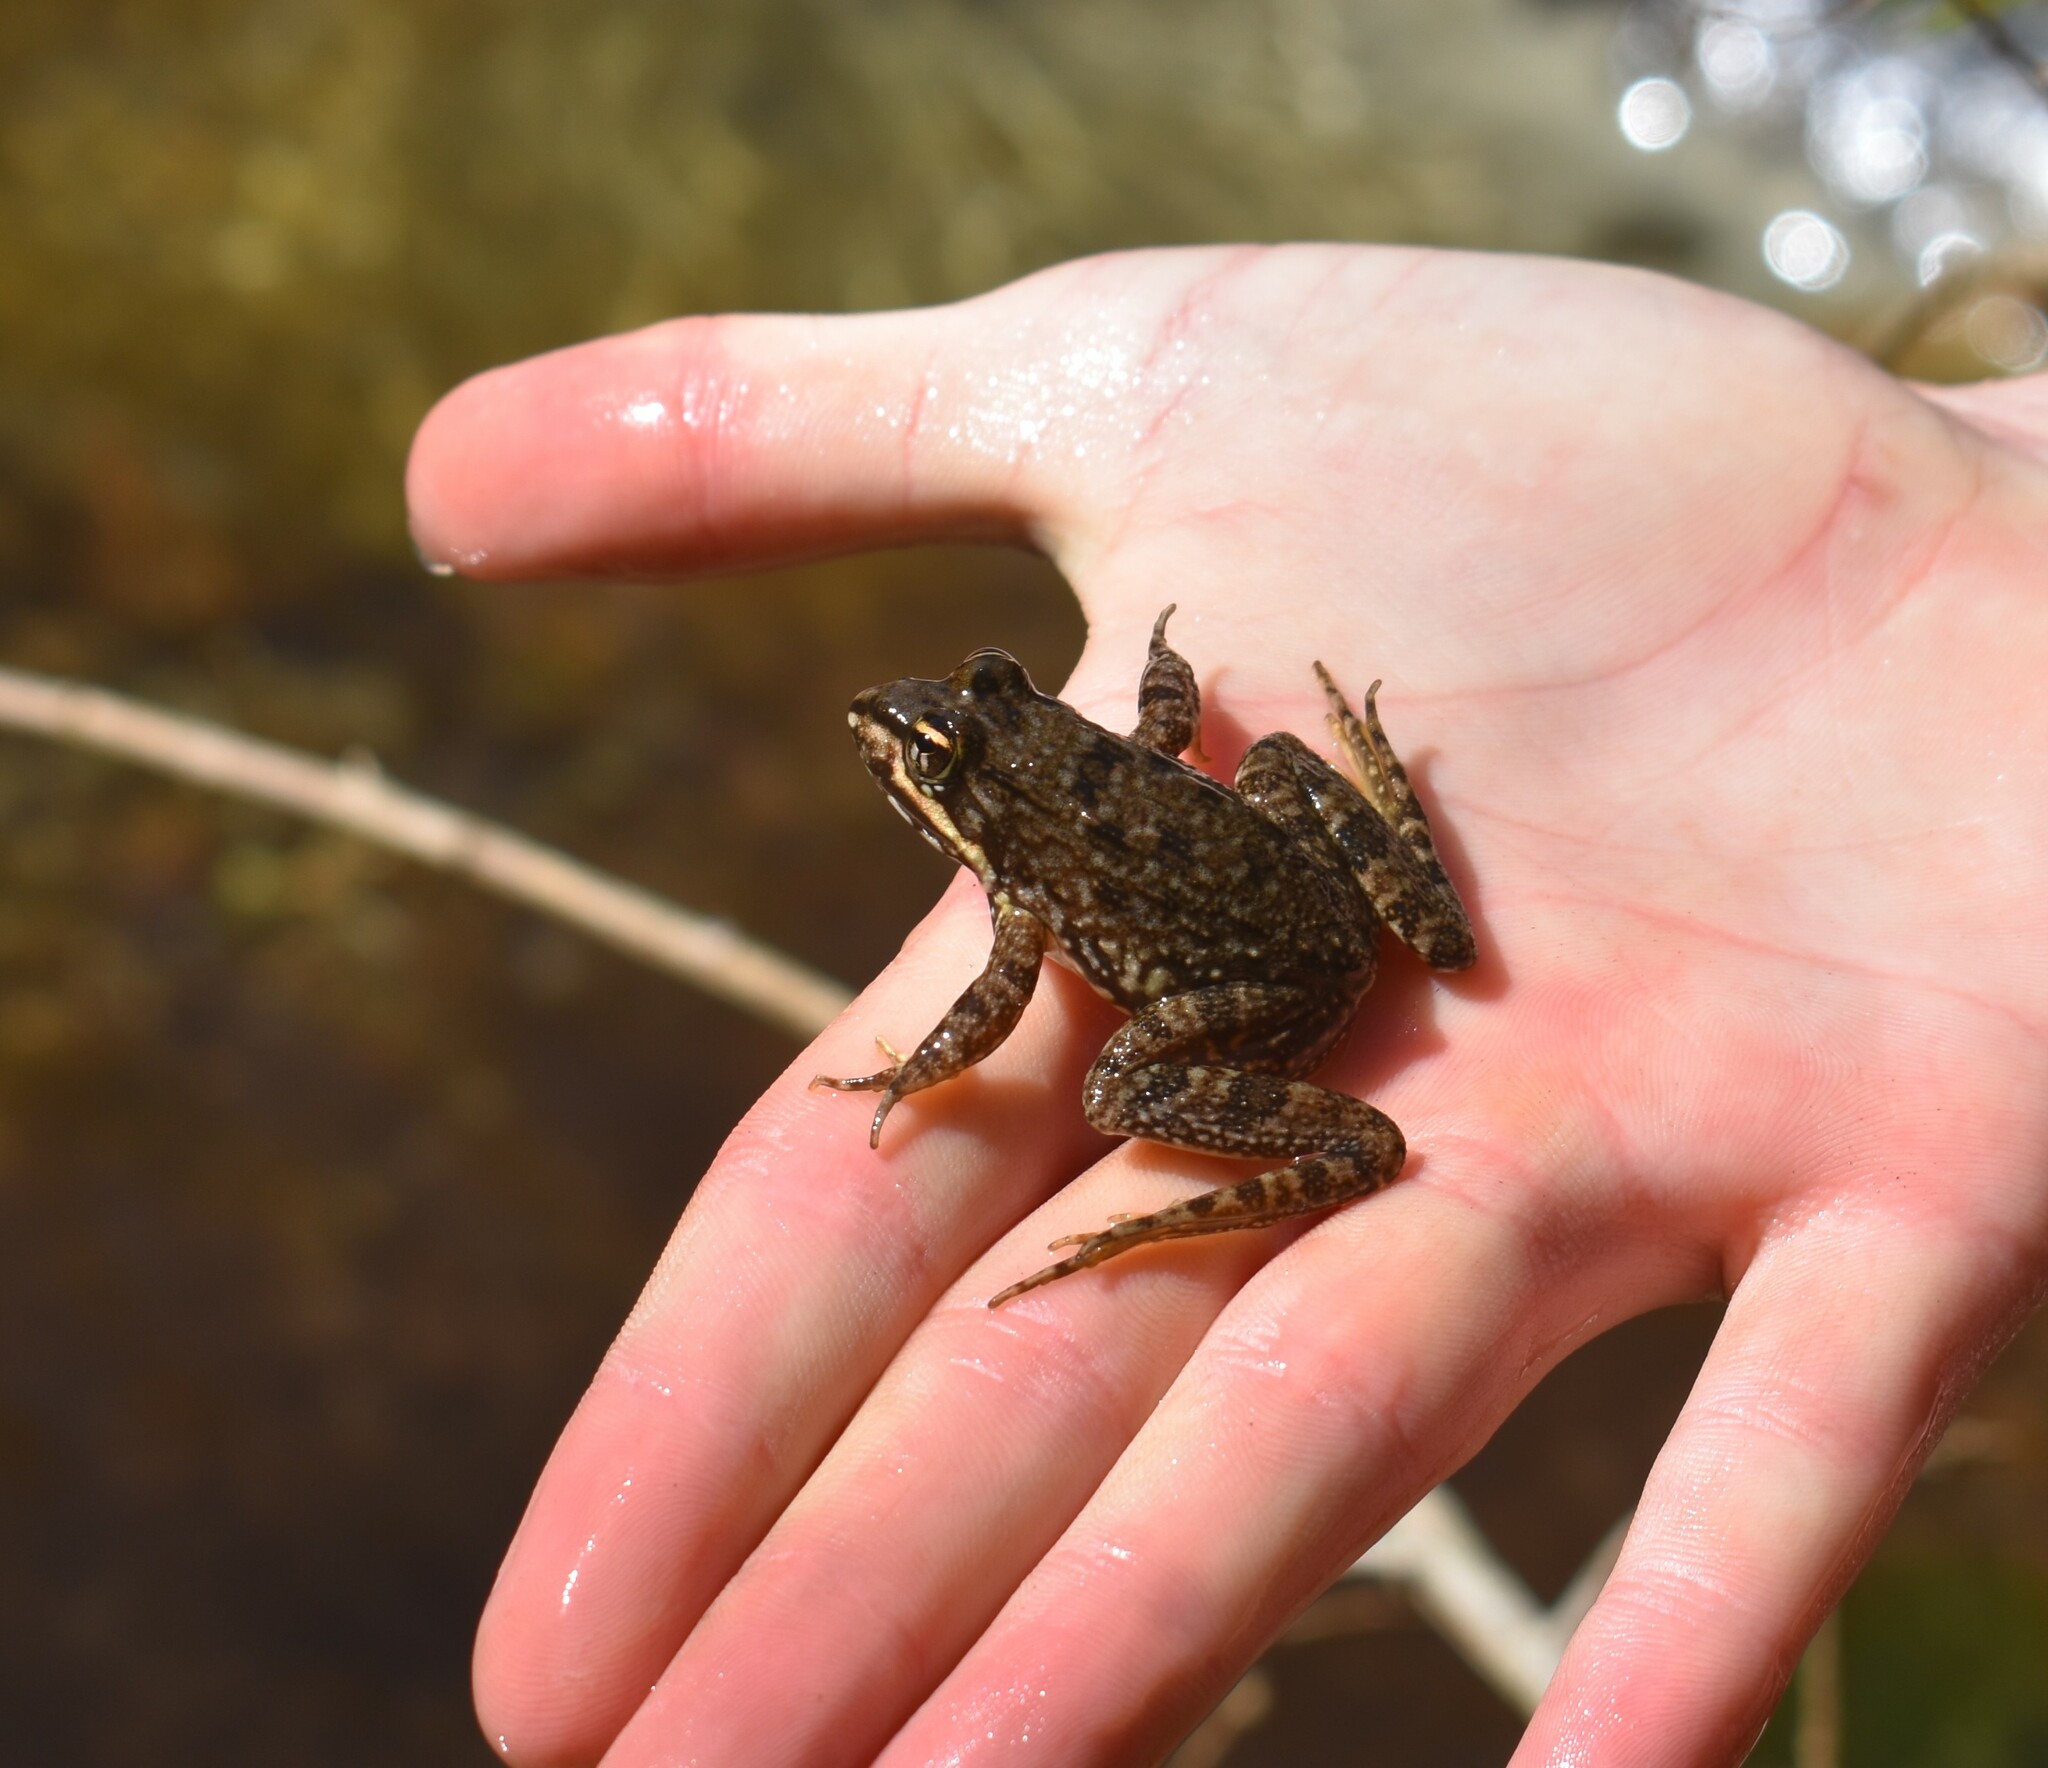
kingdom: Animalia
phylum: Chordata
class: Amphibia
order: Anura
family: Pyxicephalidae
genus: Amietia
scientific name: Amietia fuscigula
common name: Cape rana
